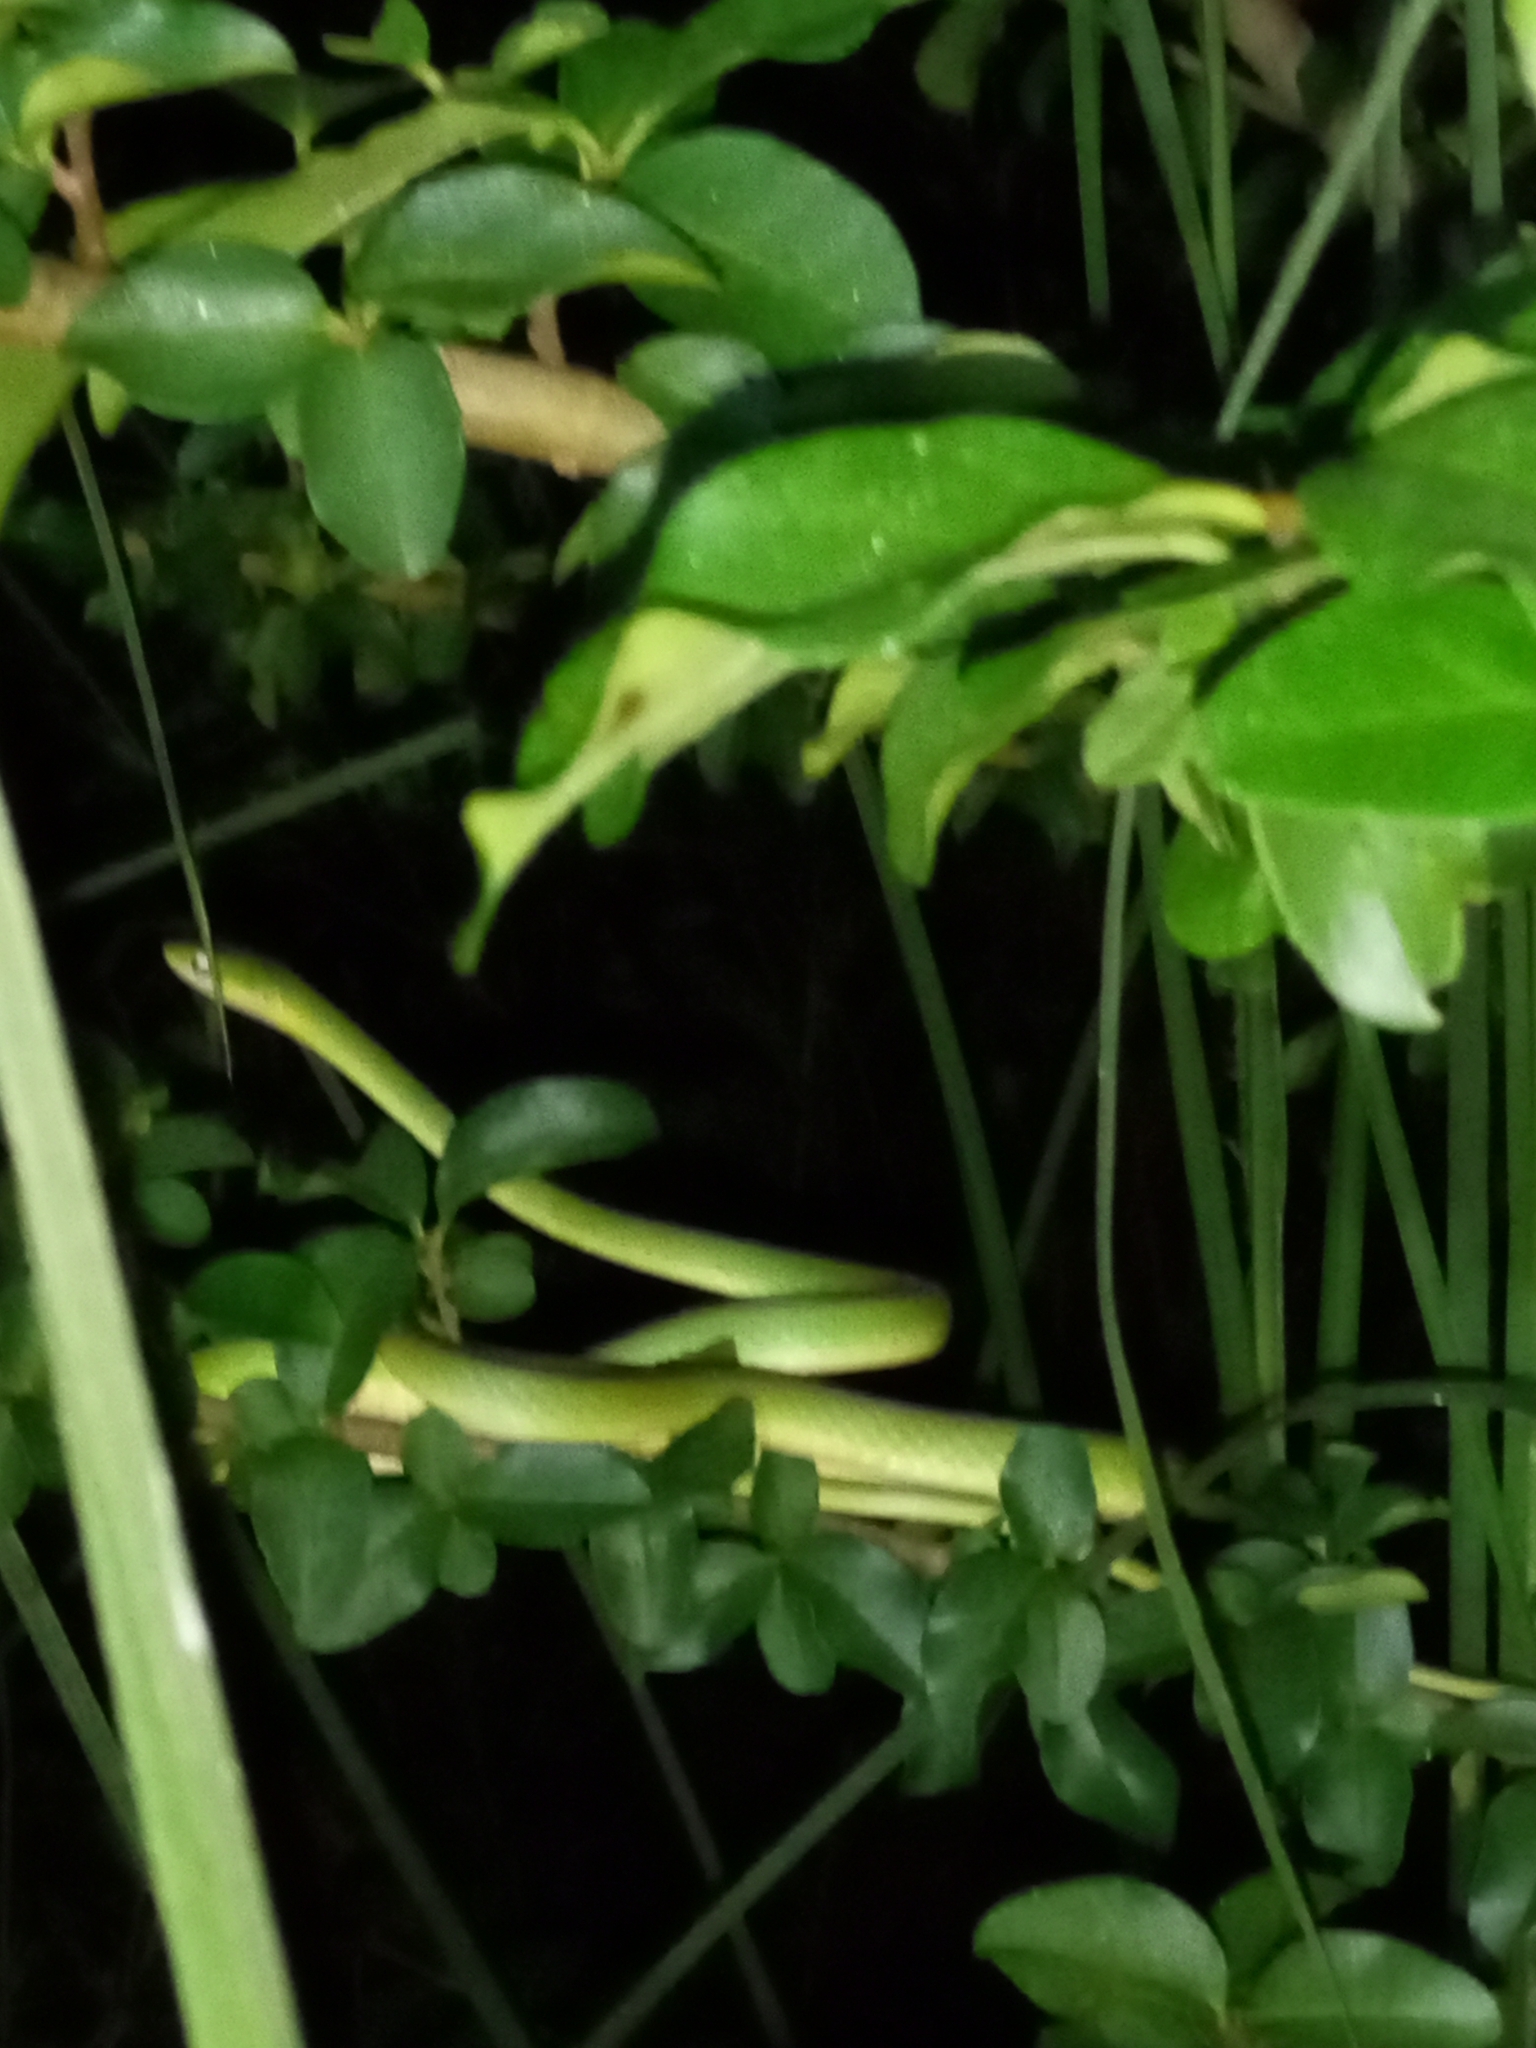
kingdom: Animalia
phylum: Chordata
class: Squamata
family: Colubridae
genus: Opheodrys
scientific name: Opheodrys aestivus
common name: Rough greensnake
